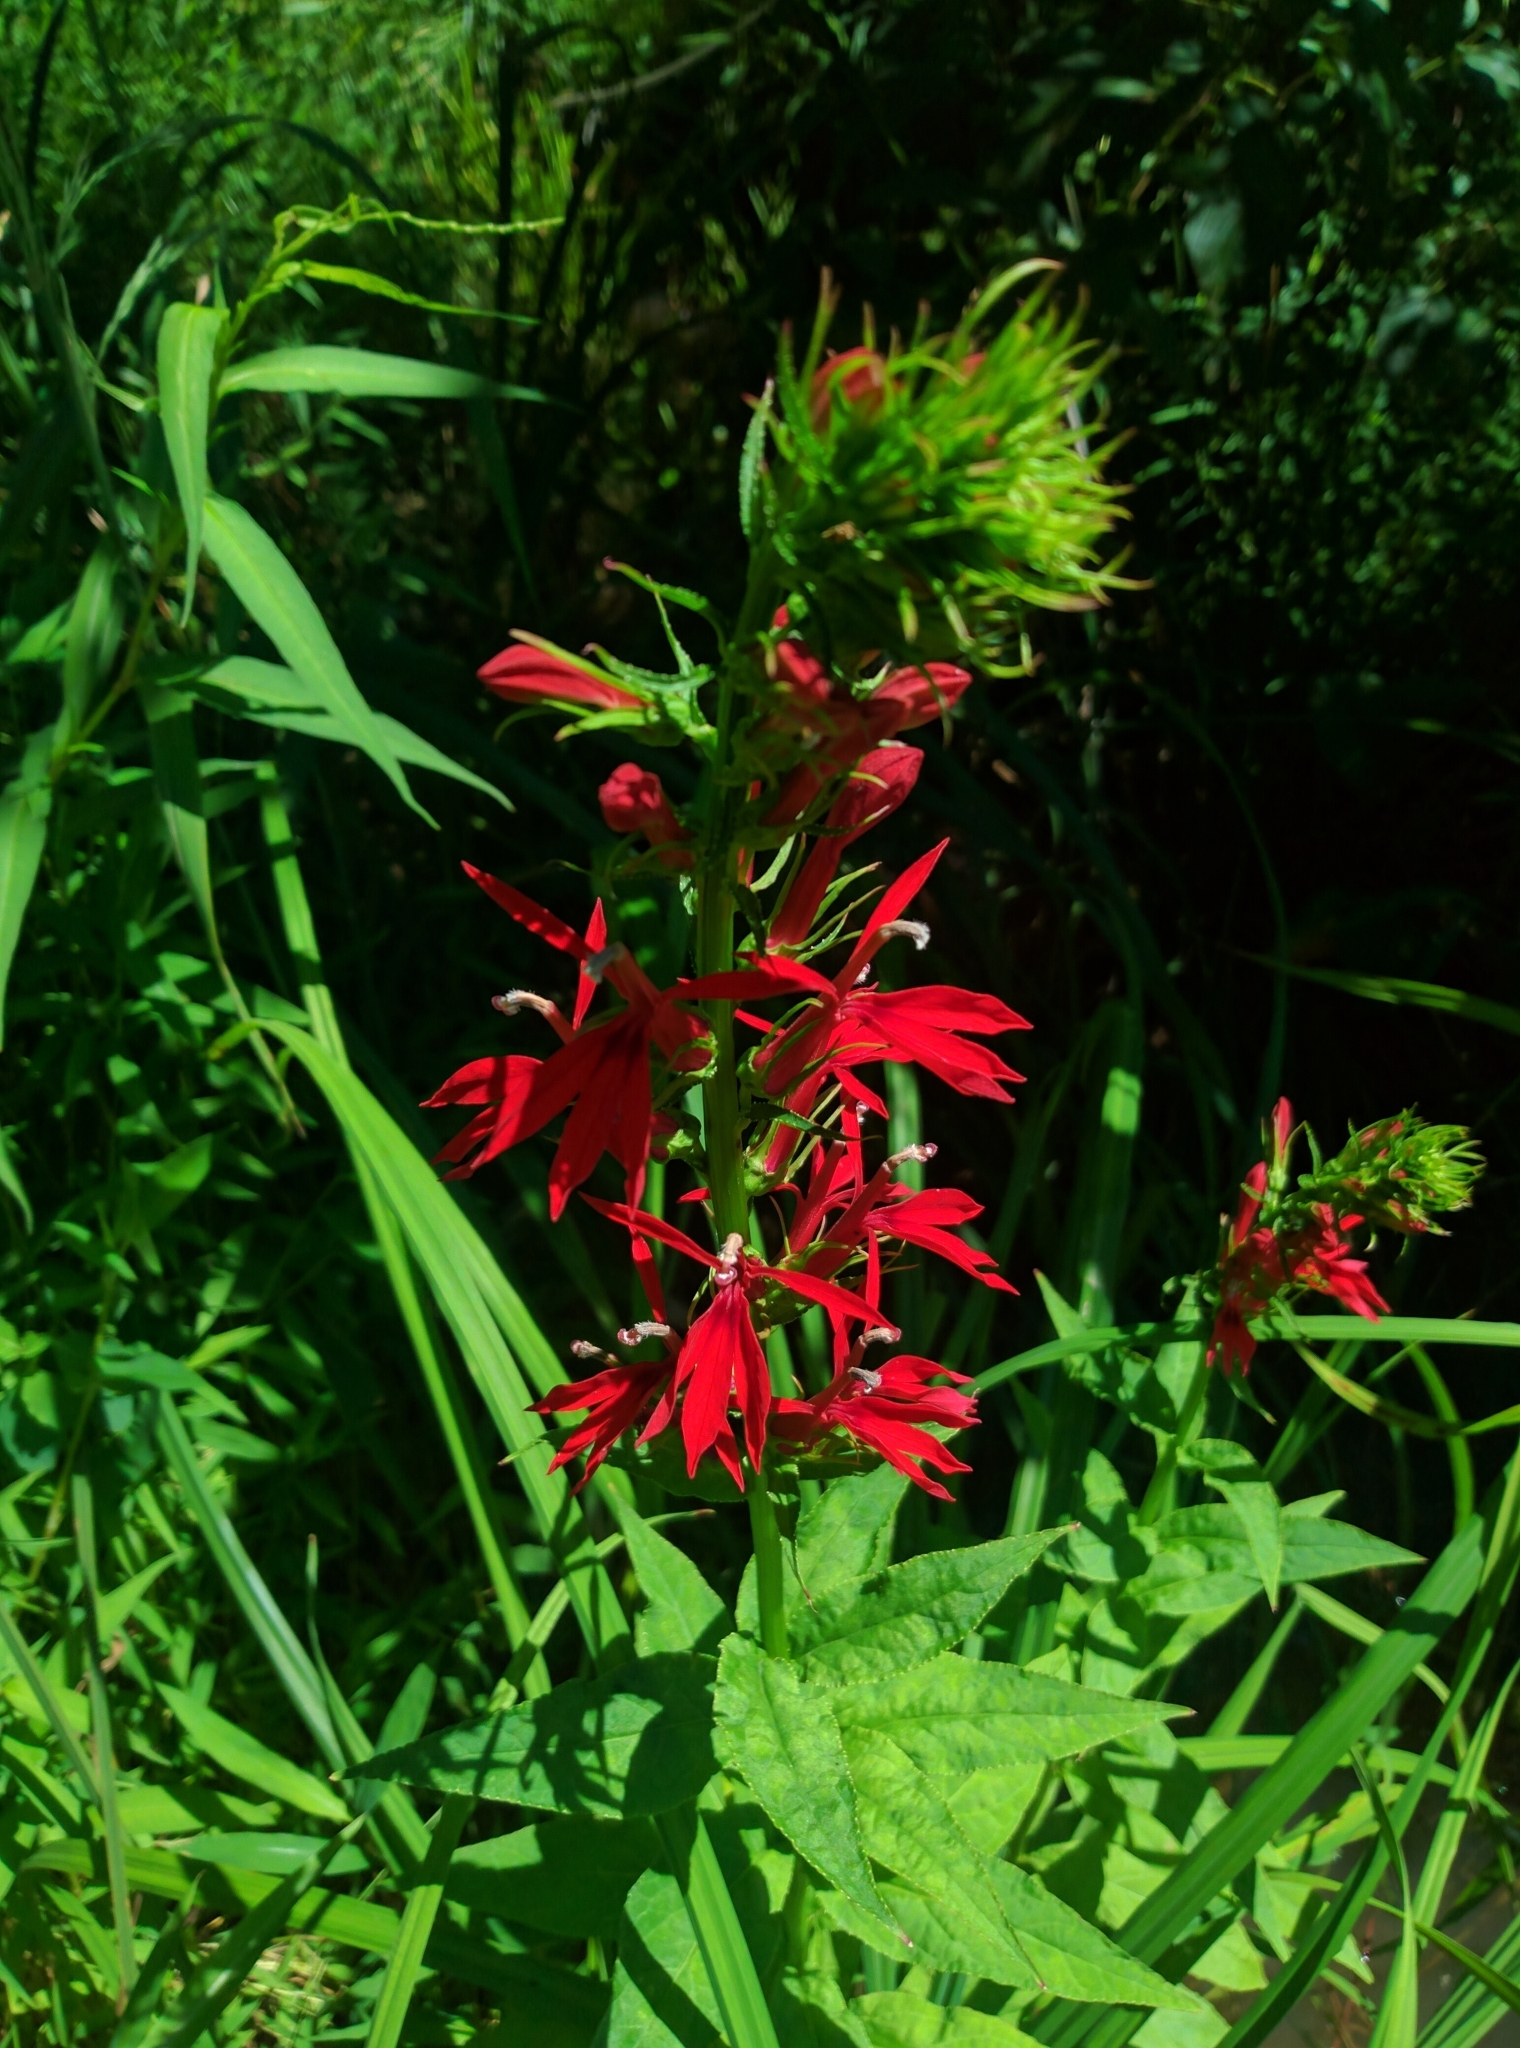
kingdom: Plantae
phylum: Tracheophyta
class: Magnoliopsida
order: Asterales
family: Campanulaceae
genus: Lobelia
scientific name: Lobelia cardinalis
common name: Cardinal flower
